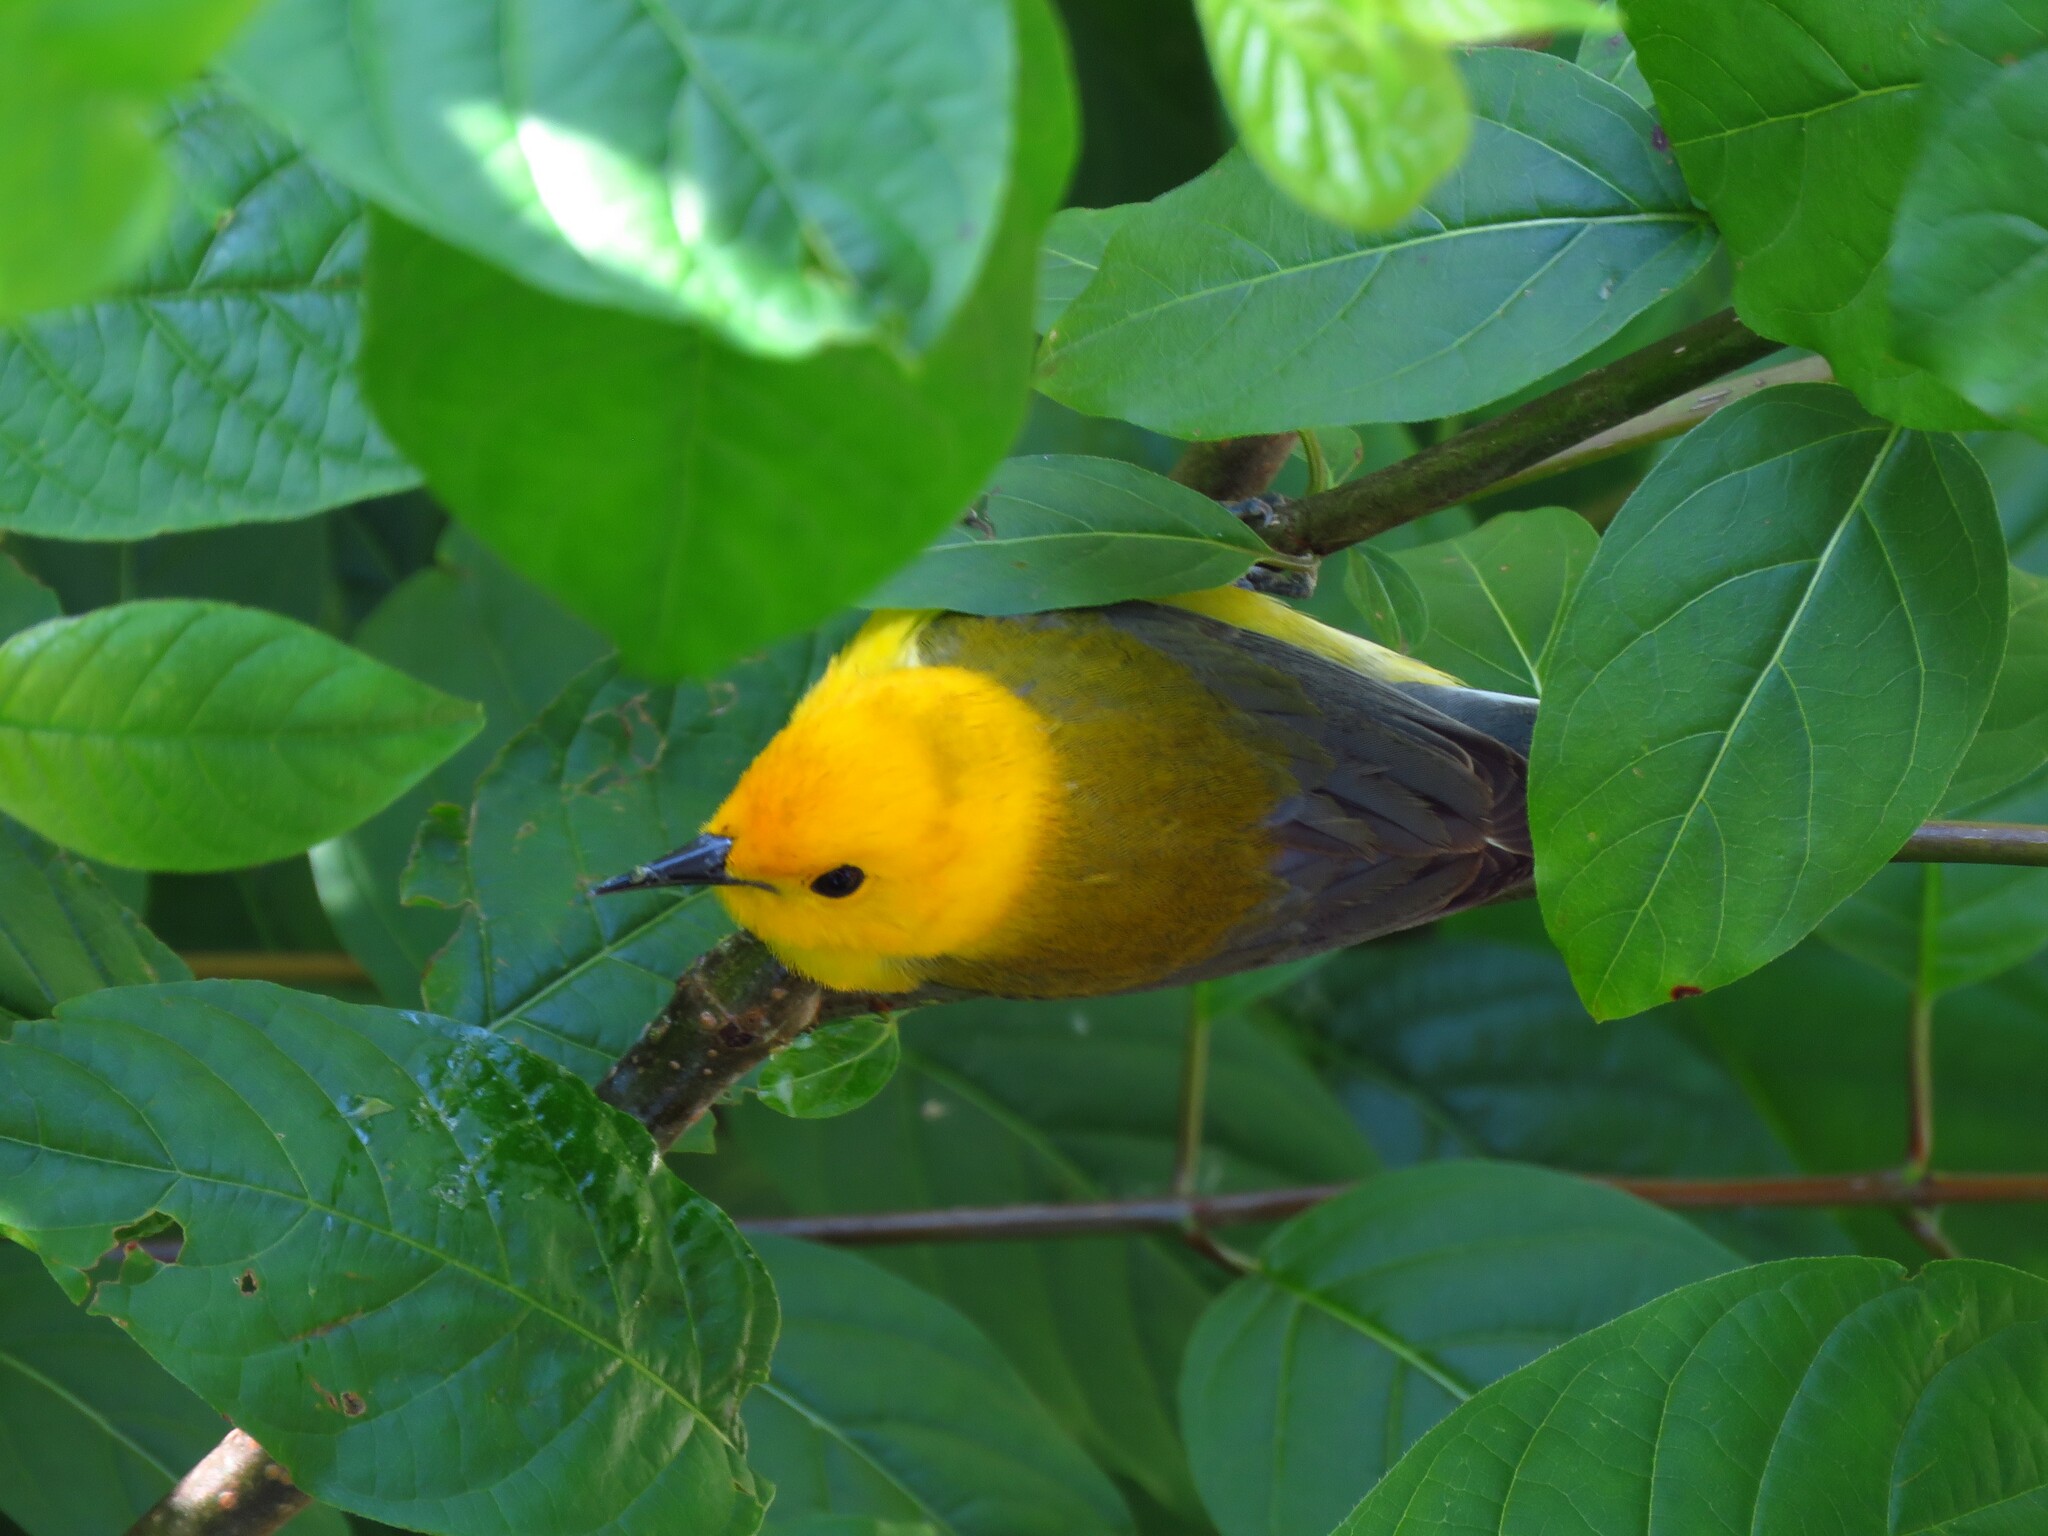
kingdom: Animalia
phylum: Chordata
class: Aves
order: Passeriformes
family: Parulidae
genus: Protonotaria
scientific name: Protonotaria citrea
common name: Prothonotary warbler
